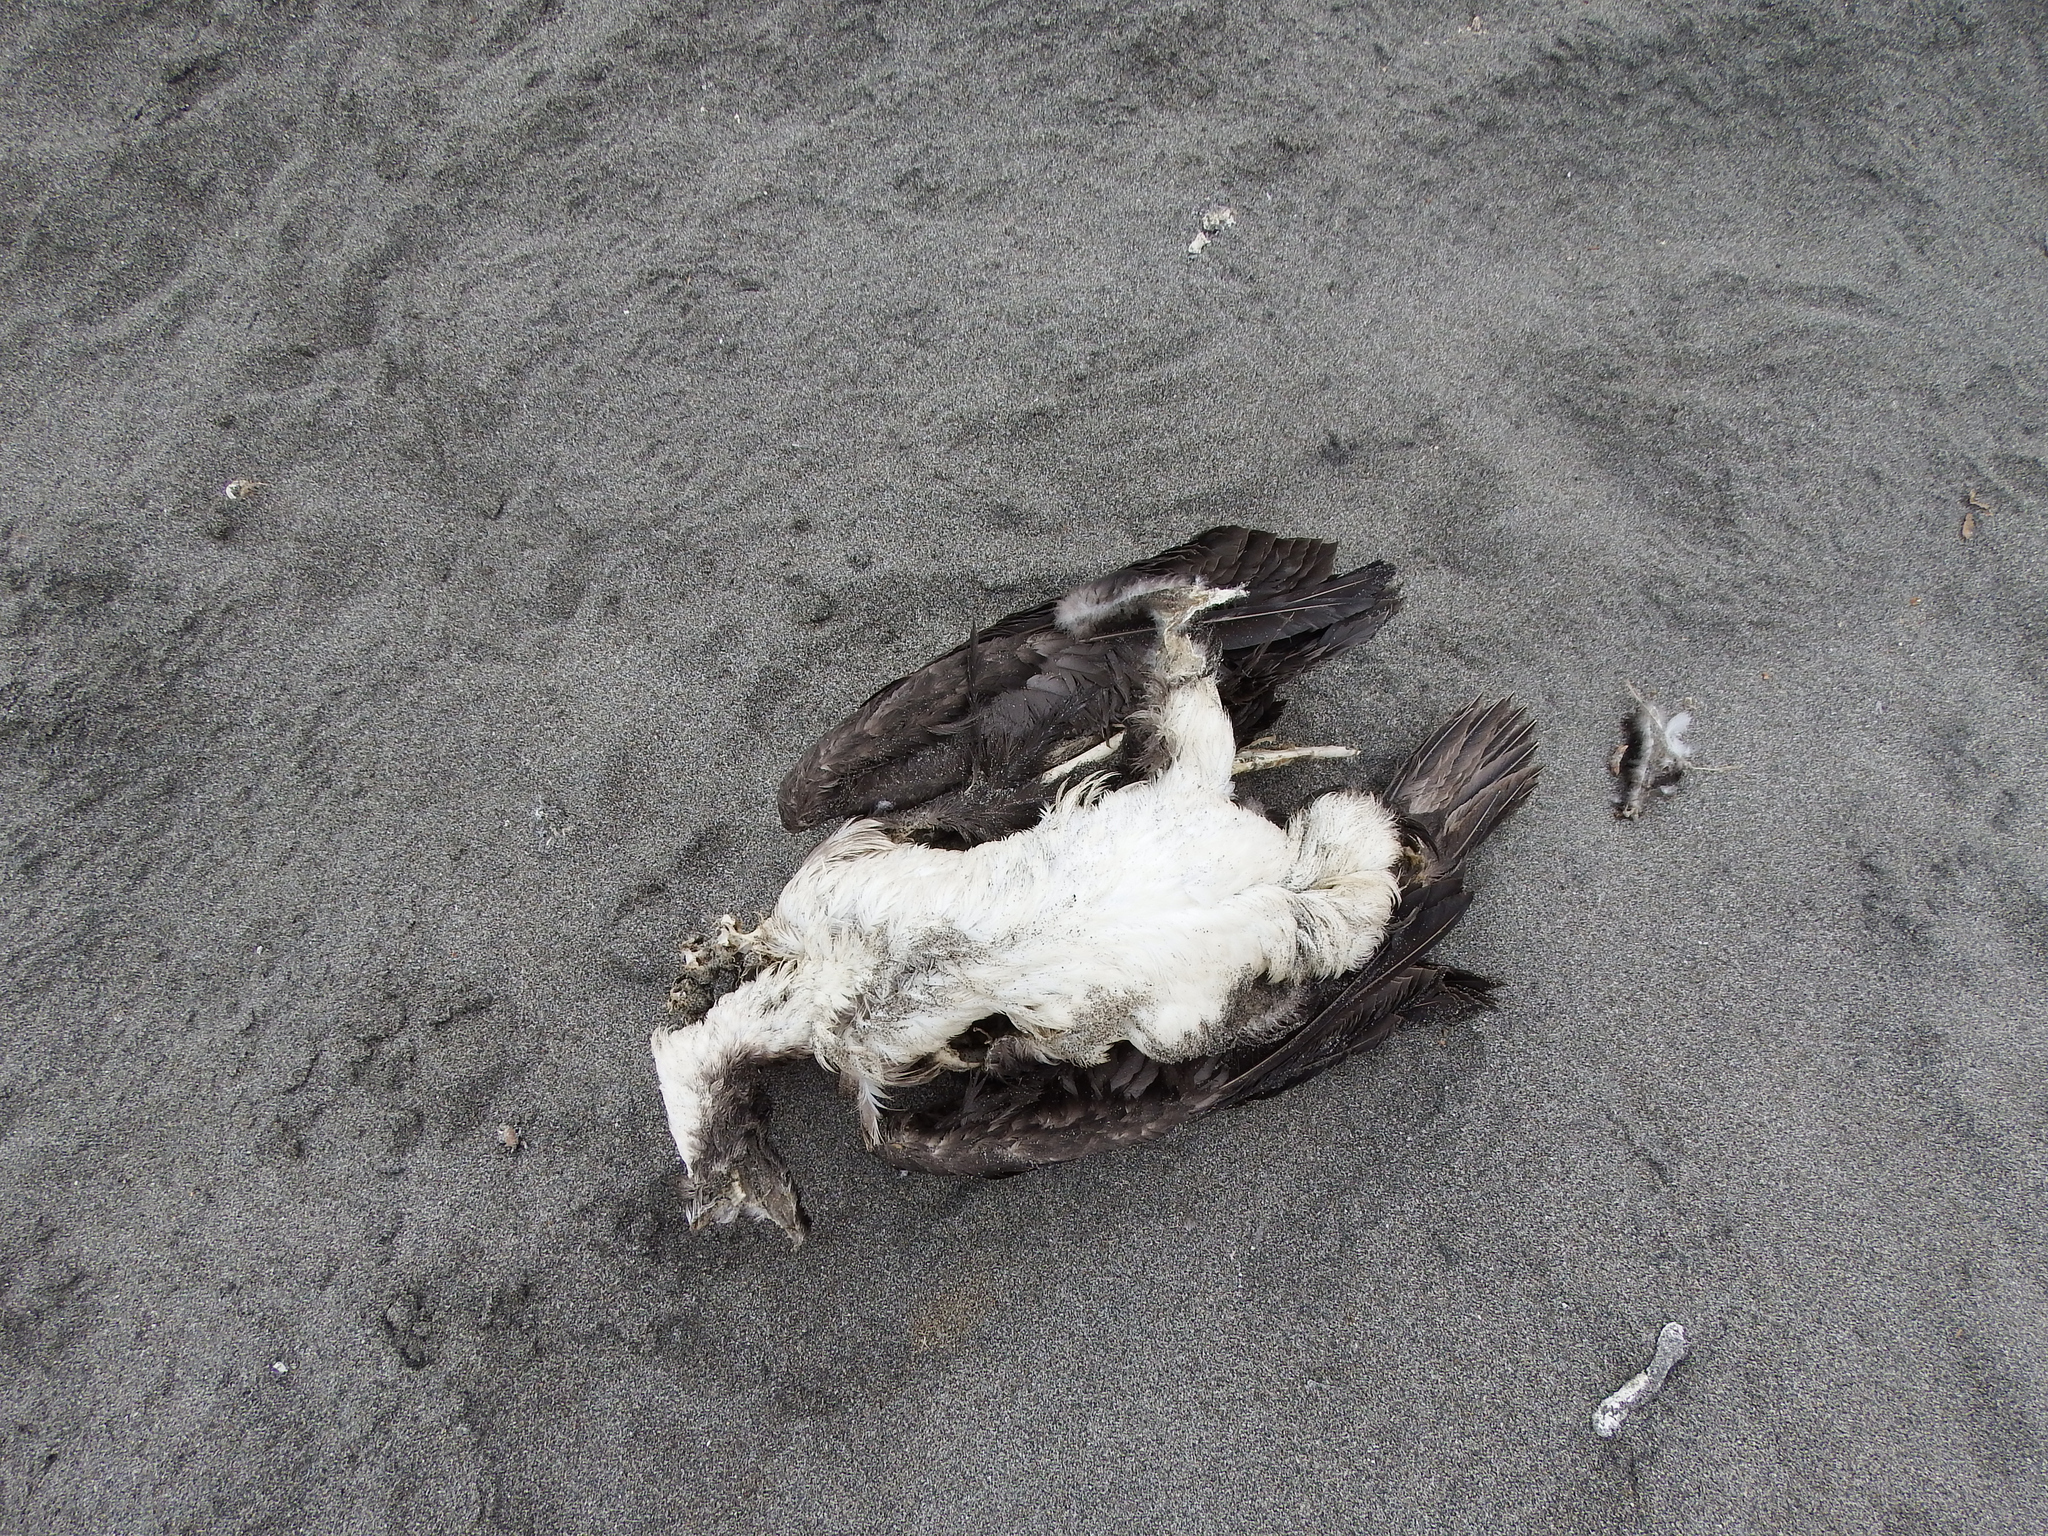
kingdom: Animalia
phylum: Chordata
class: Aves
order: Suliformes
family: Phalacrocoracidae
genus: Leucocarbo
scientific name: Leucocarbo bougainvillii
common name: Guanay cormorant
